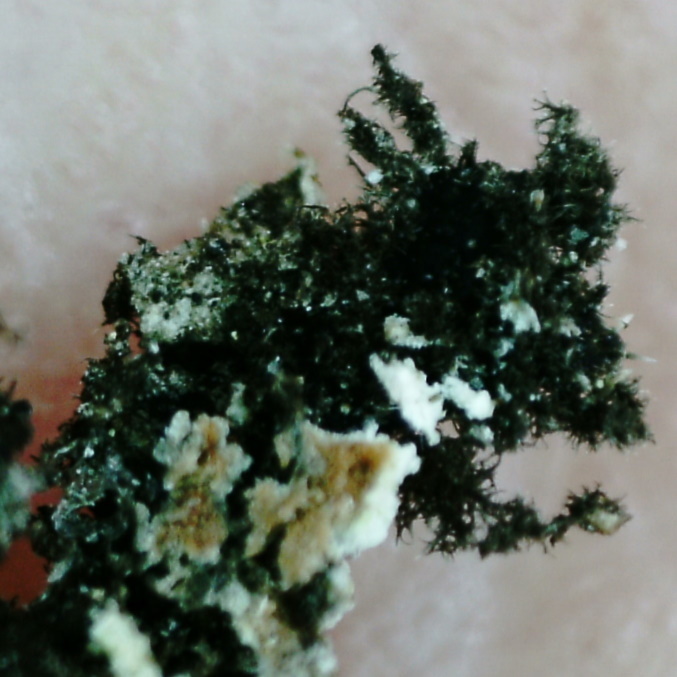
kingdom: Fungi
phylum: Ascomycota
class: Lecanoromycetes
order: Caliciales
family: Physciaceae
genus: Physconia
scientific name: Physconia distorta
